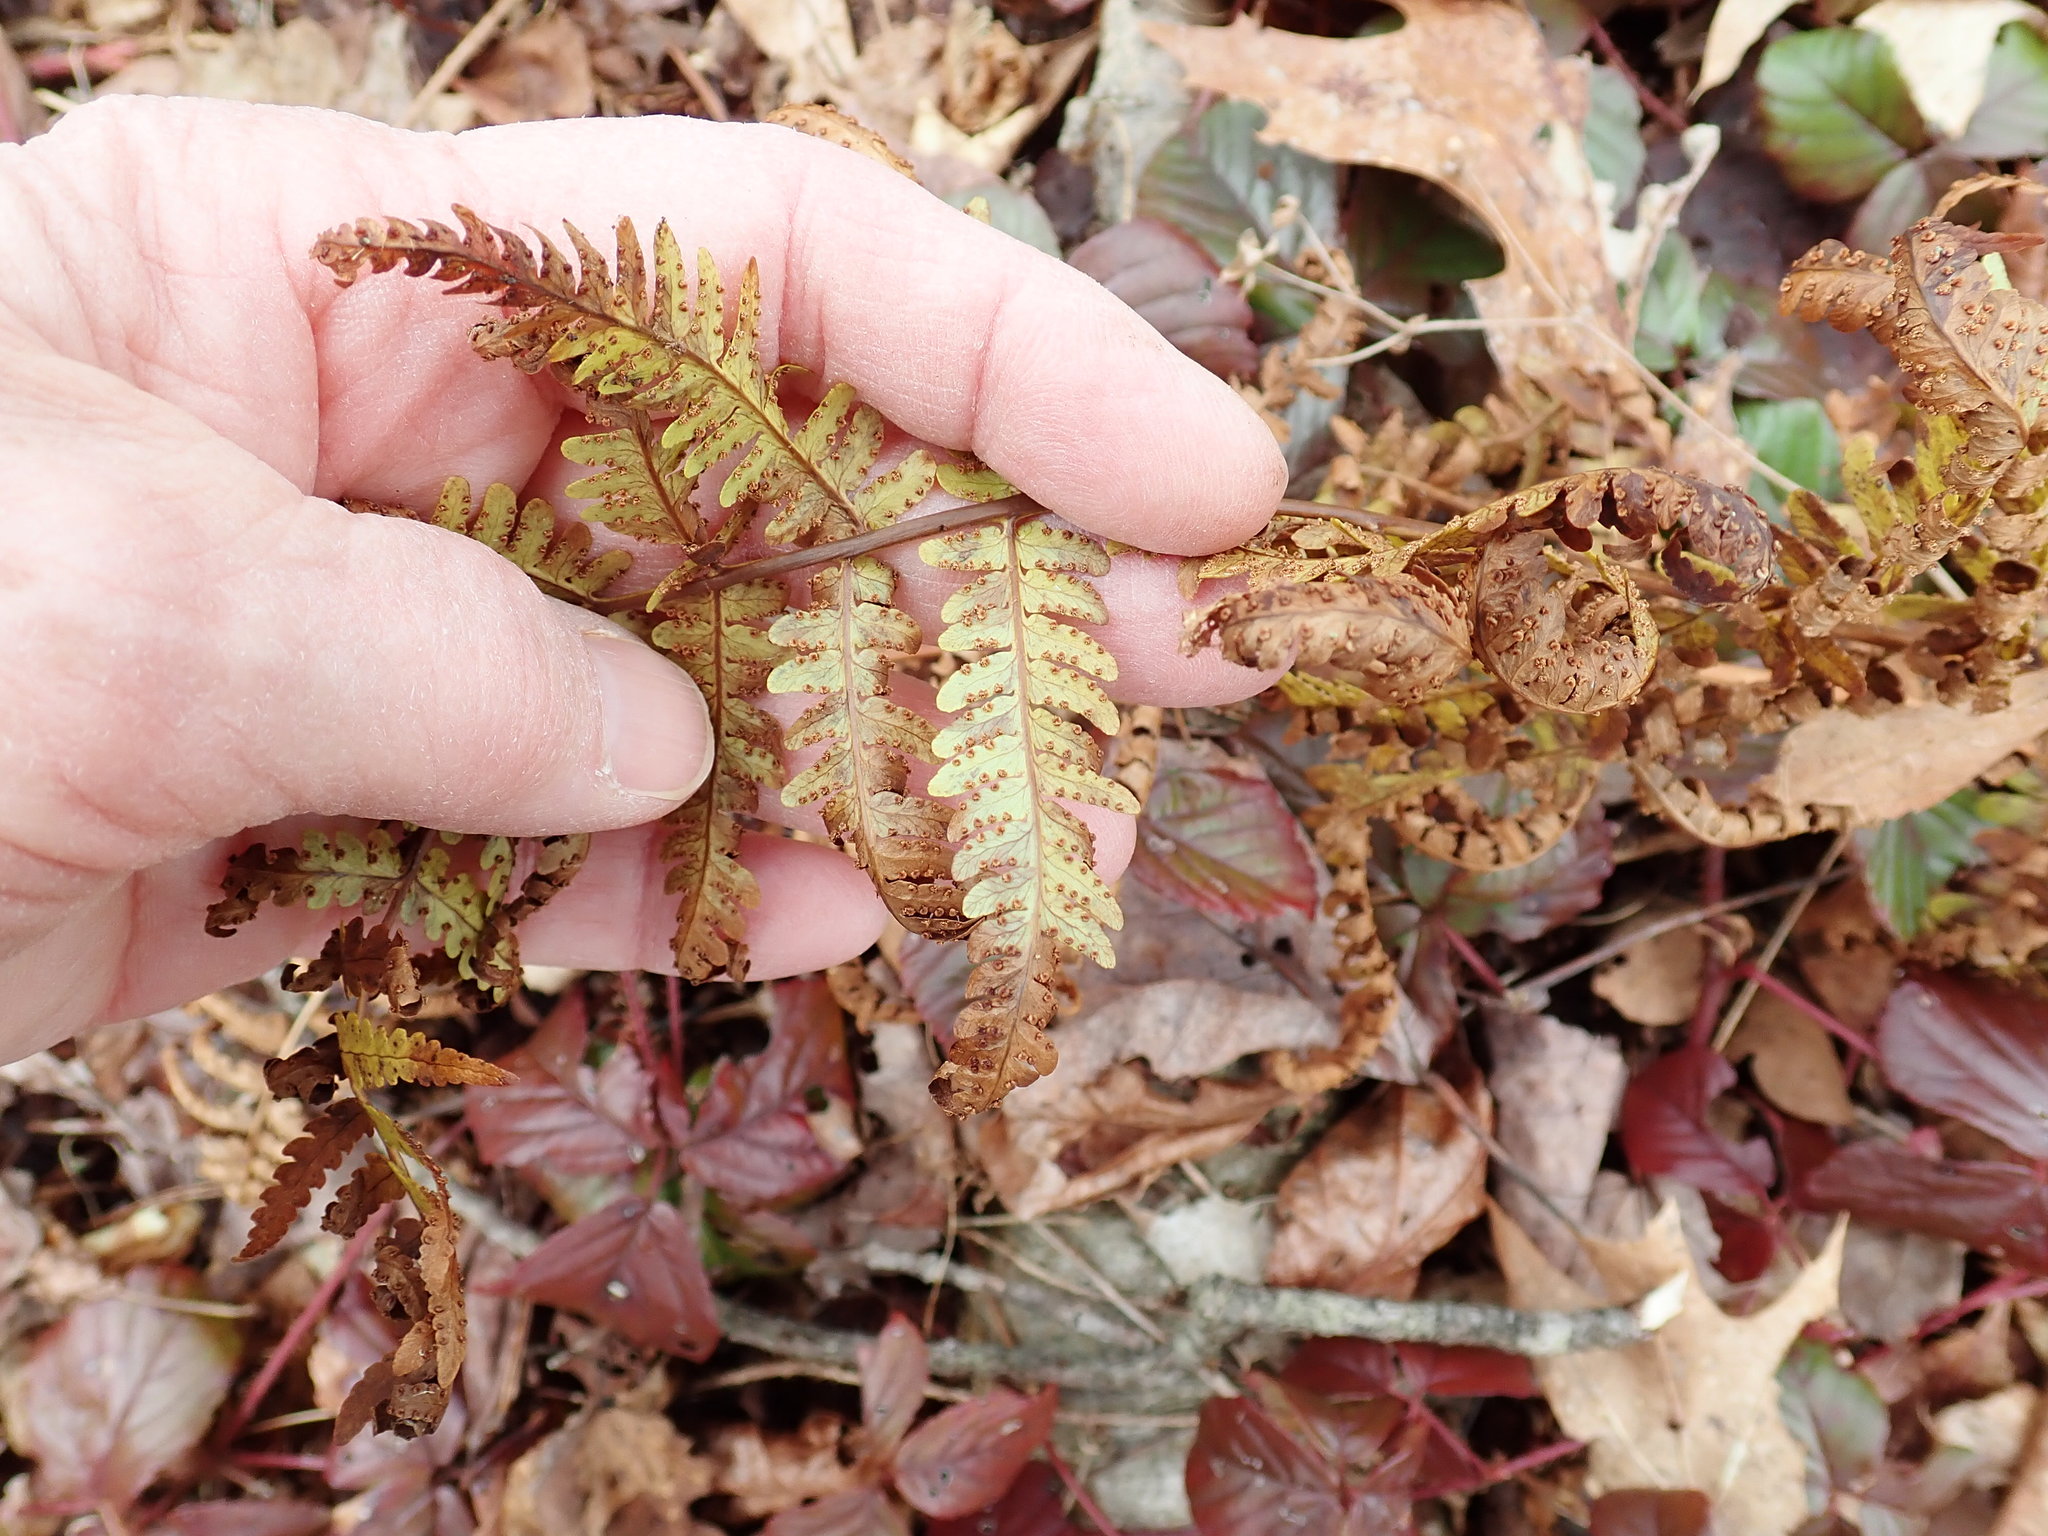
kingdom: Plantae
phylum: Tracheophyta
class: Polypodiopsida
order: Polypodiales
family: Dryopteridaceae
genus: Dryopteris
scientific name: Dryopteris marginalis
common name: Marginal wood fern
